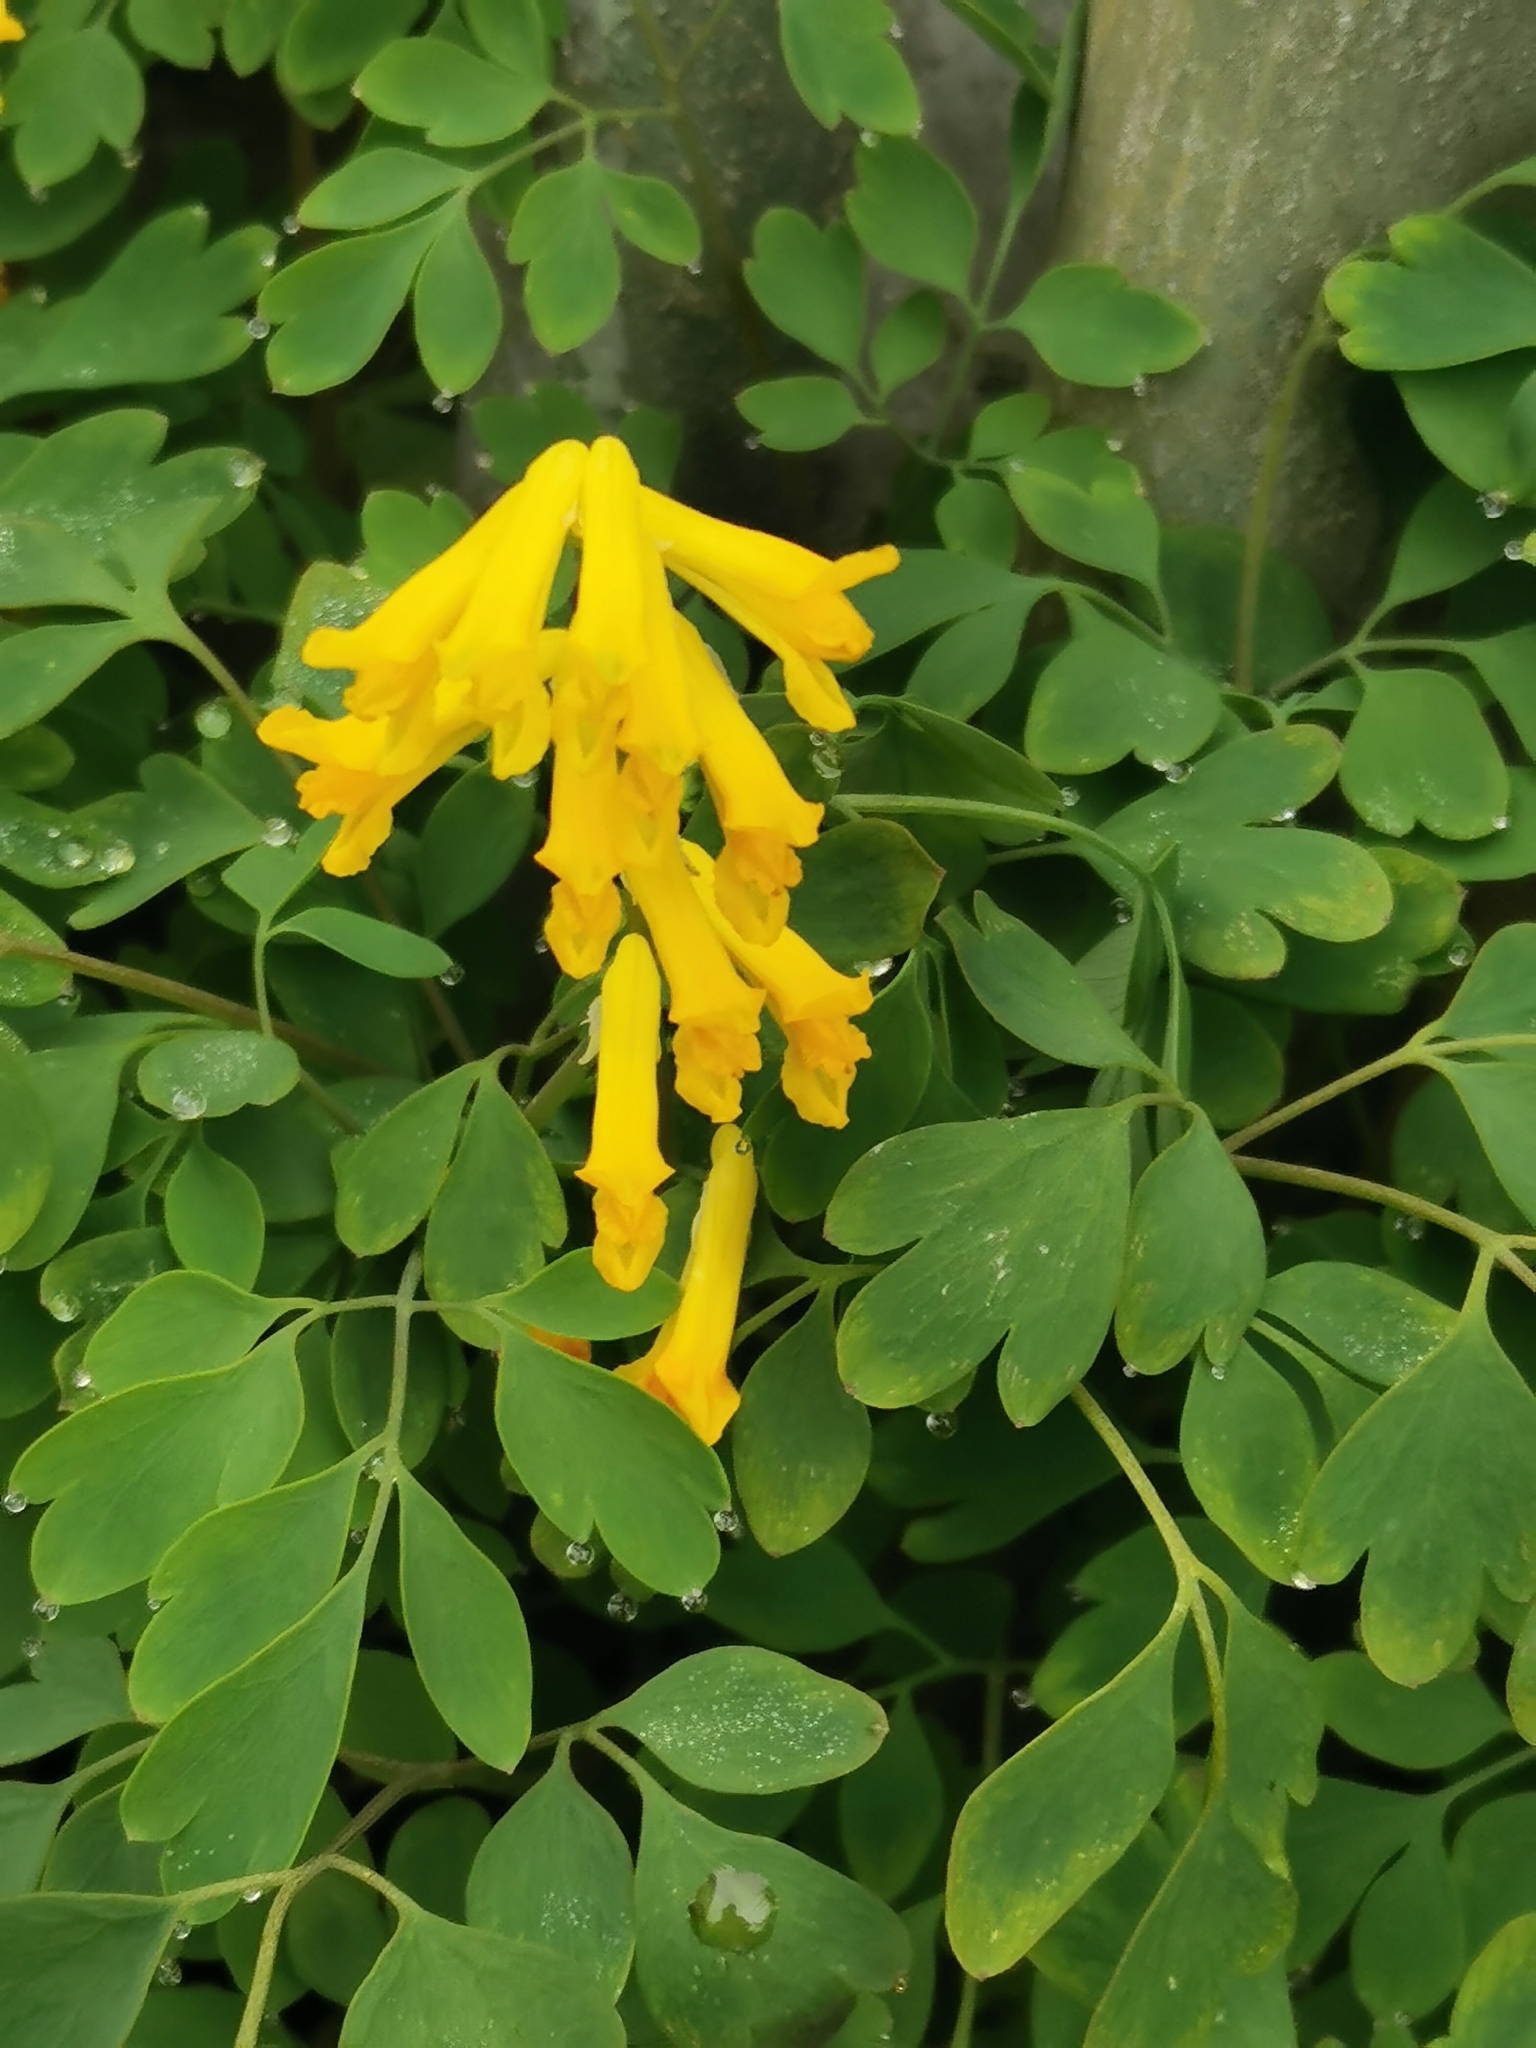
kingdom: Plantae
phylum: Tracheophyta
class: Magnoliopsida
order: Ranunculales
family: Papaveraceae
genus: Pseudofumaria
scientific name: Pseudofumaria lutea
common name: Yellow corydalis
